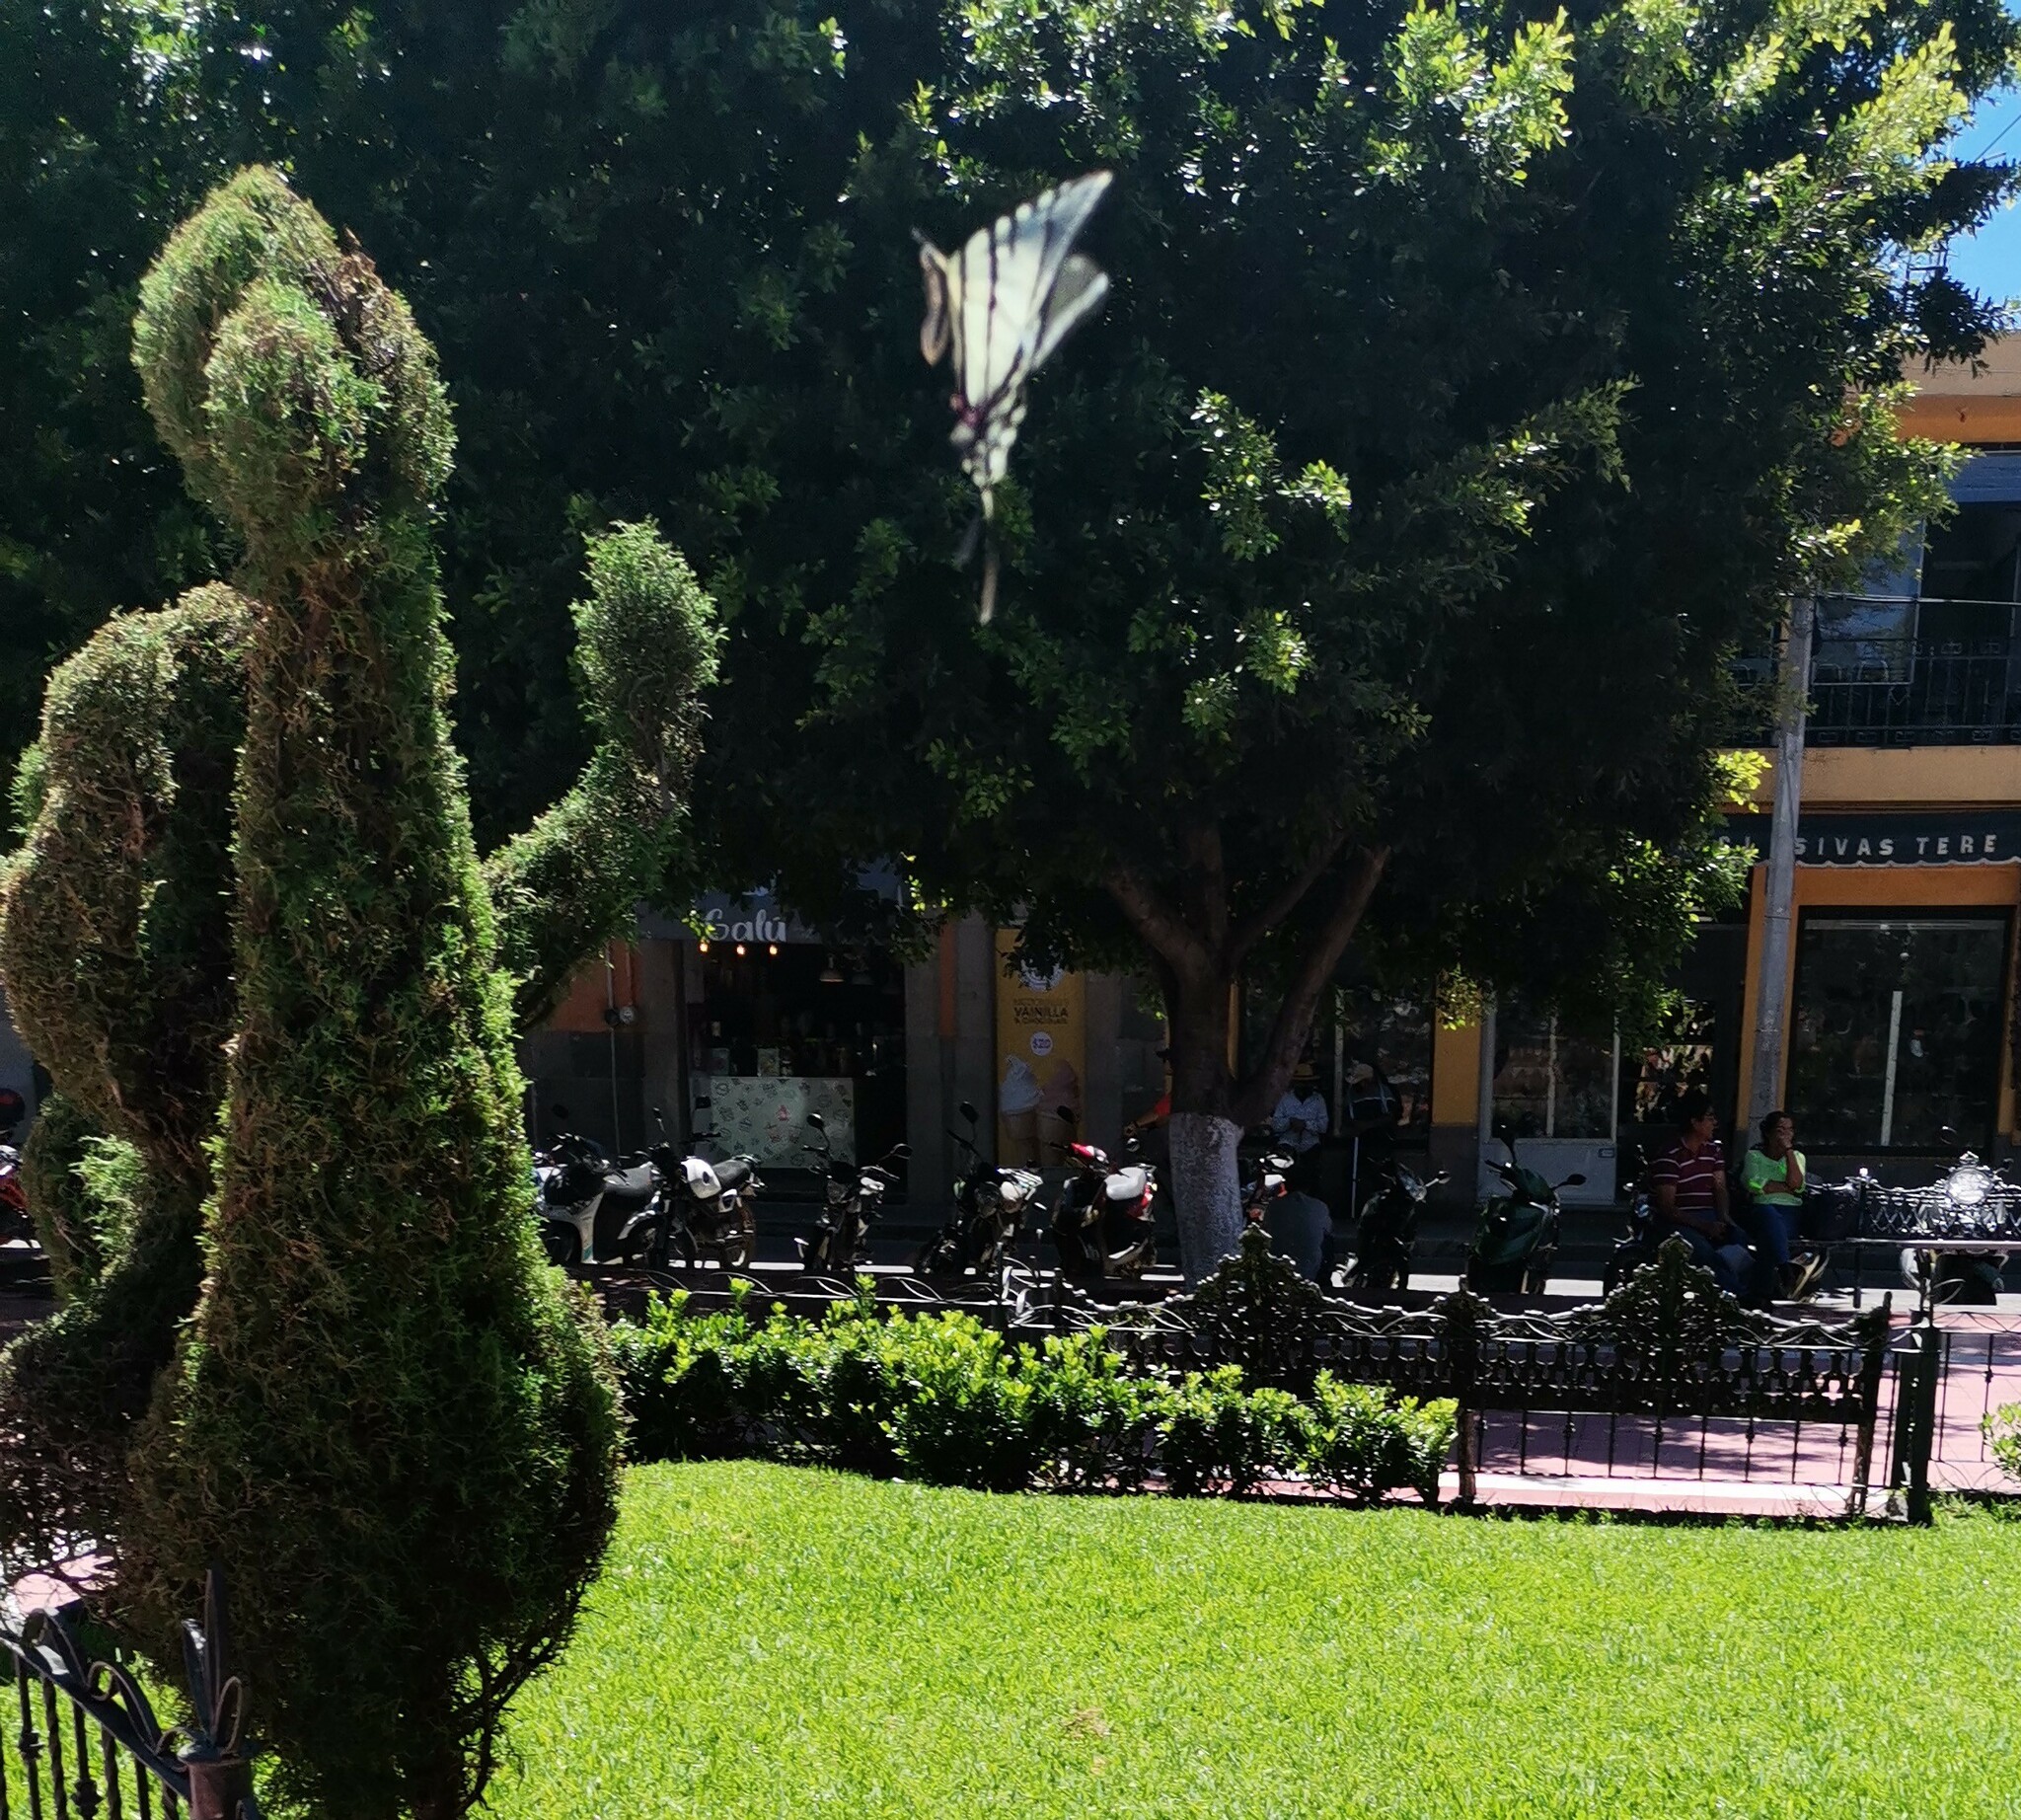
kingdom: Animalia
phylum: Arthropoda
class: Insecta
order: Lepidoptera
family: Papilionidae
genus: Protographium
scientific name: Protographium epidaus
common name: Mexican kite swallowtail
